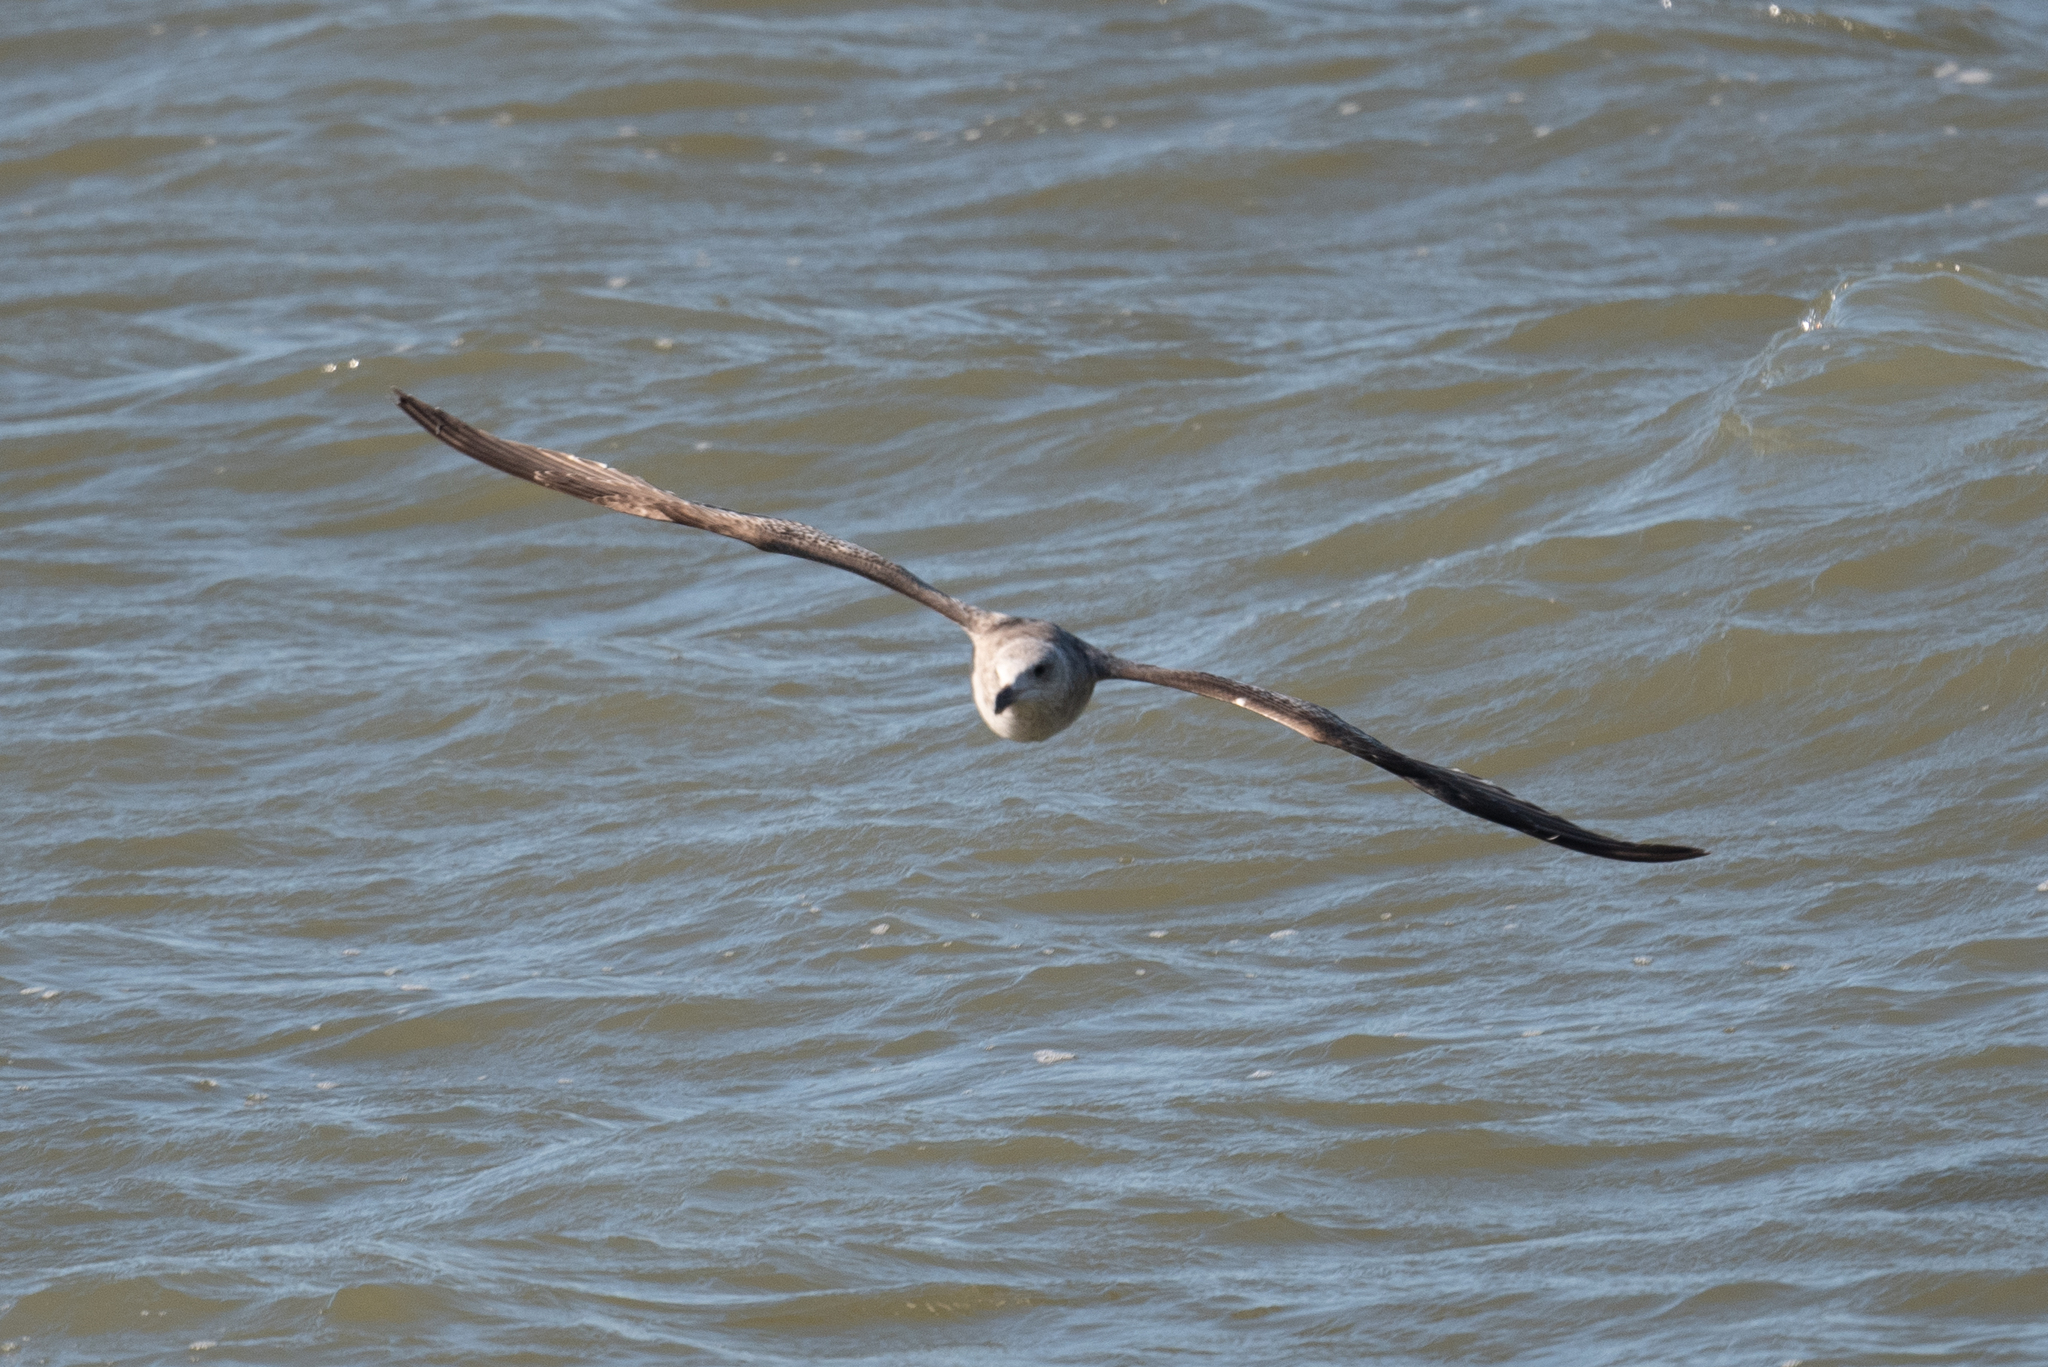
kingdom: Animalia
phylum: Chordata
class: Aves
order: Charadriiformes
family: Laridae
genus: Larus
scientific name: Larus occidentalis
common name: Western gull
